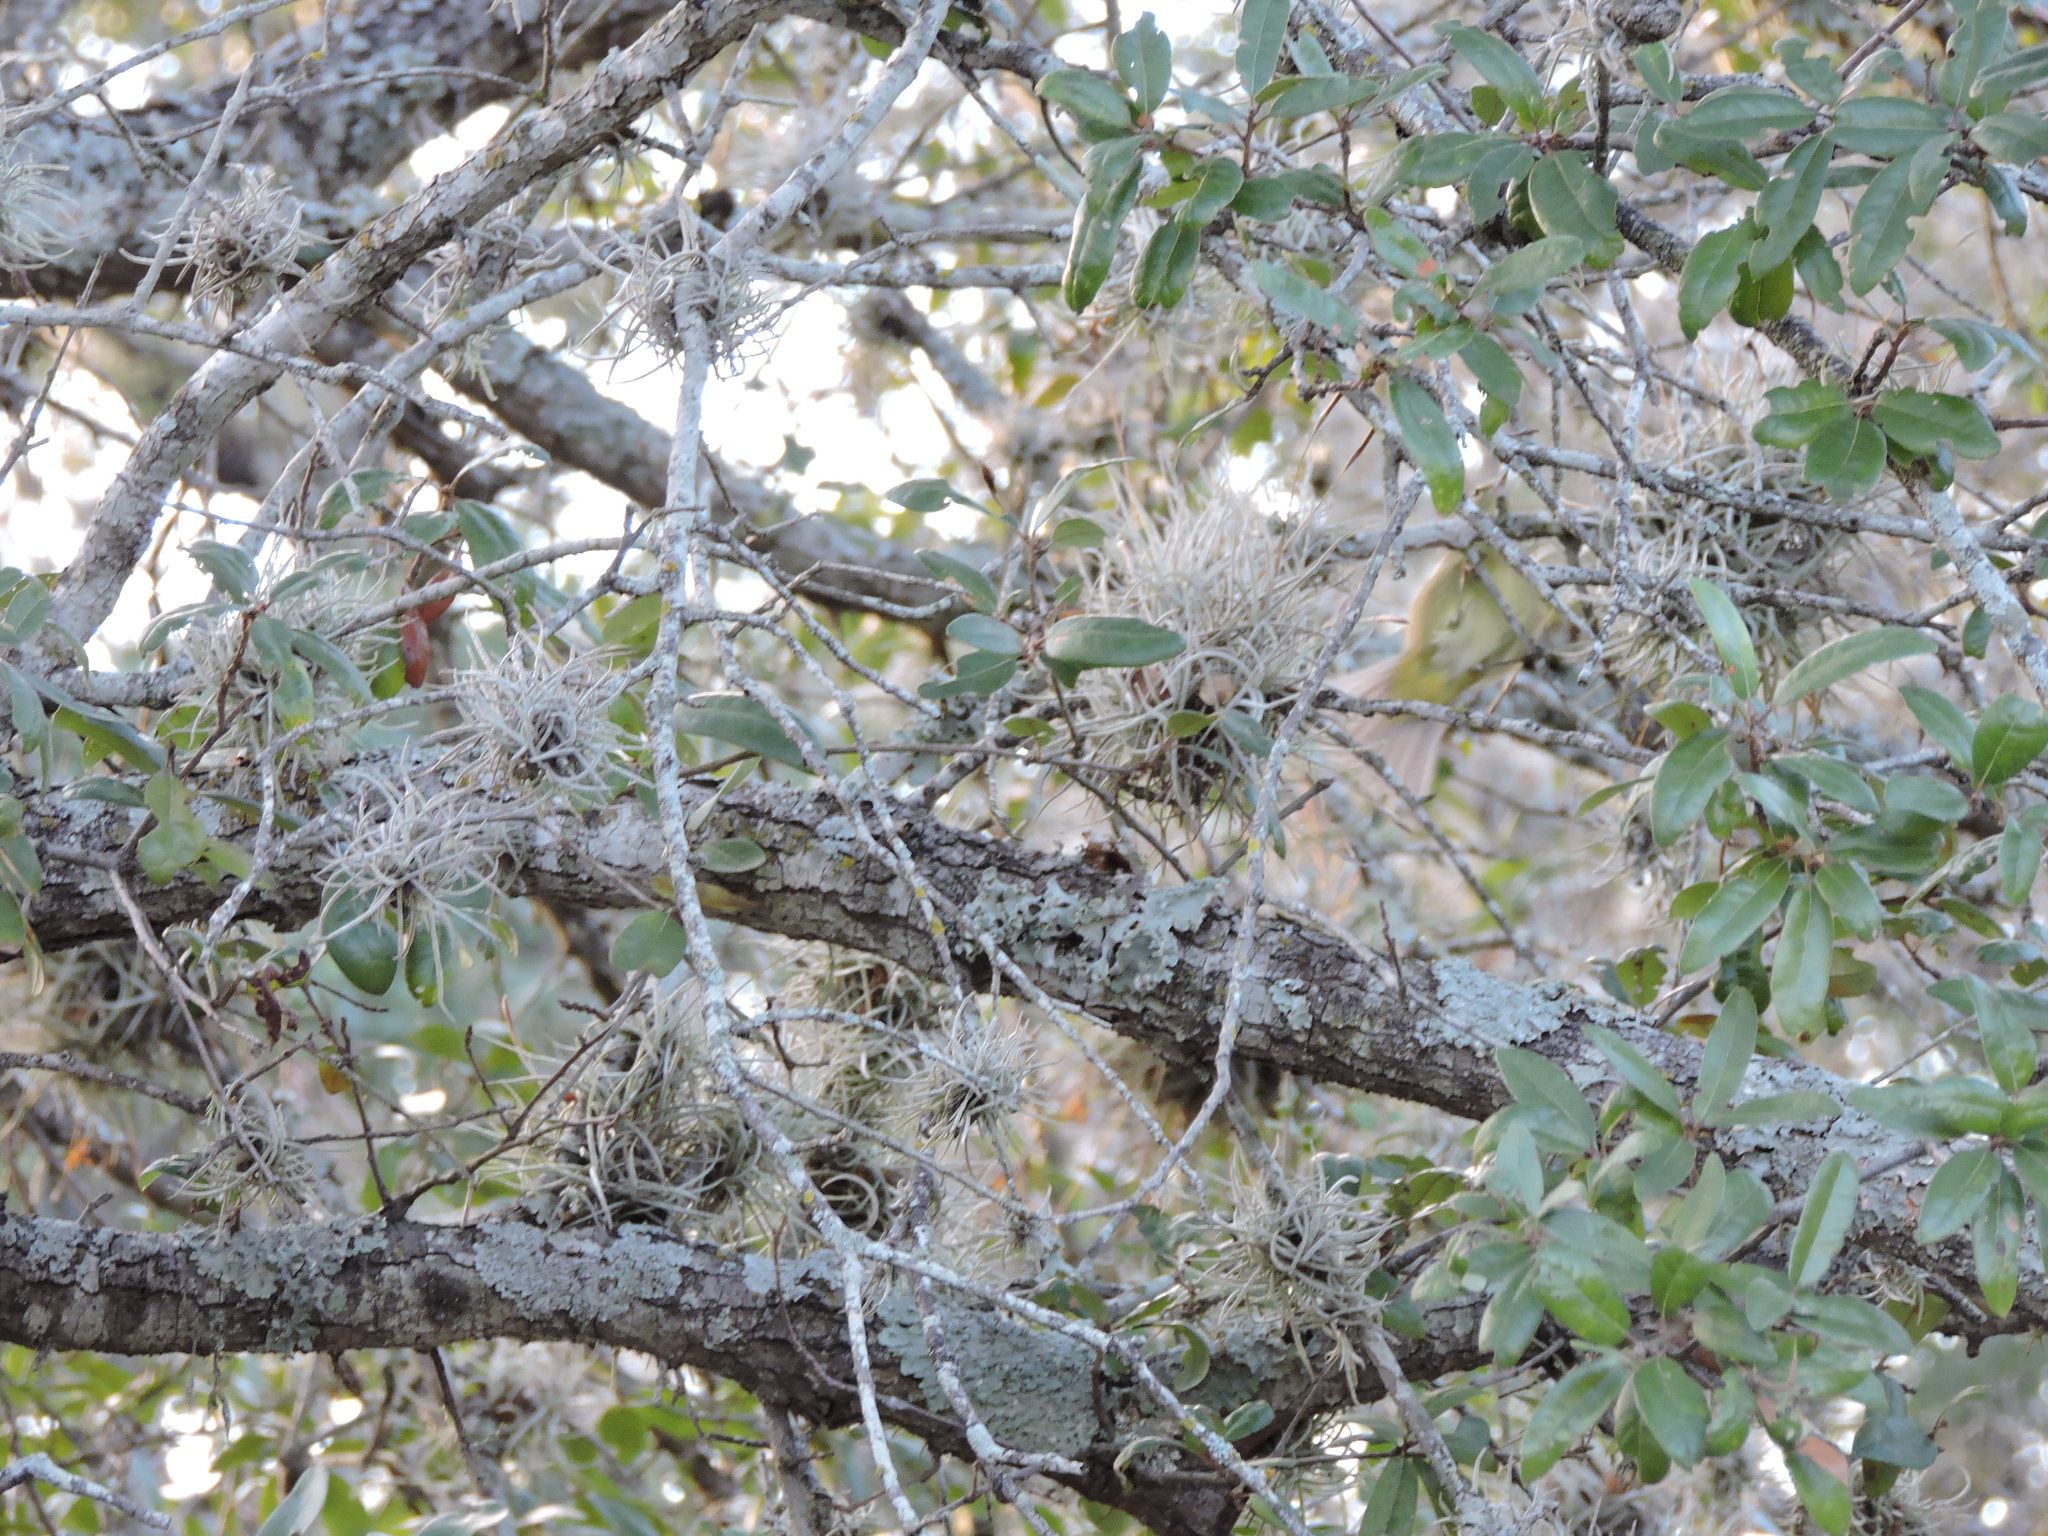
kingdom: Animalia
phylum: Chordata
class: Aves
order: Passeriformes
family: Parulidae
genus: Leiothlypis
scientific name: Leiothlypis celata
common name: Orange-crowned warbler
